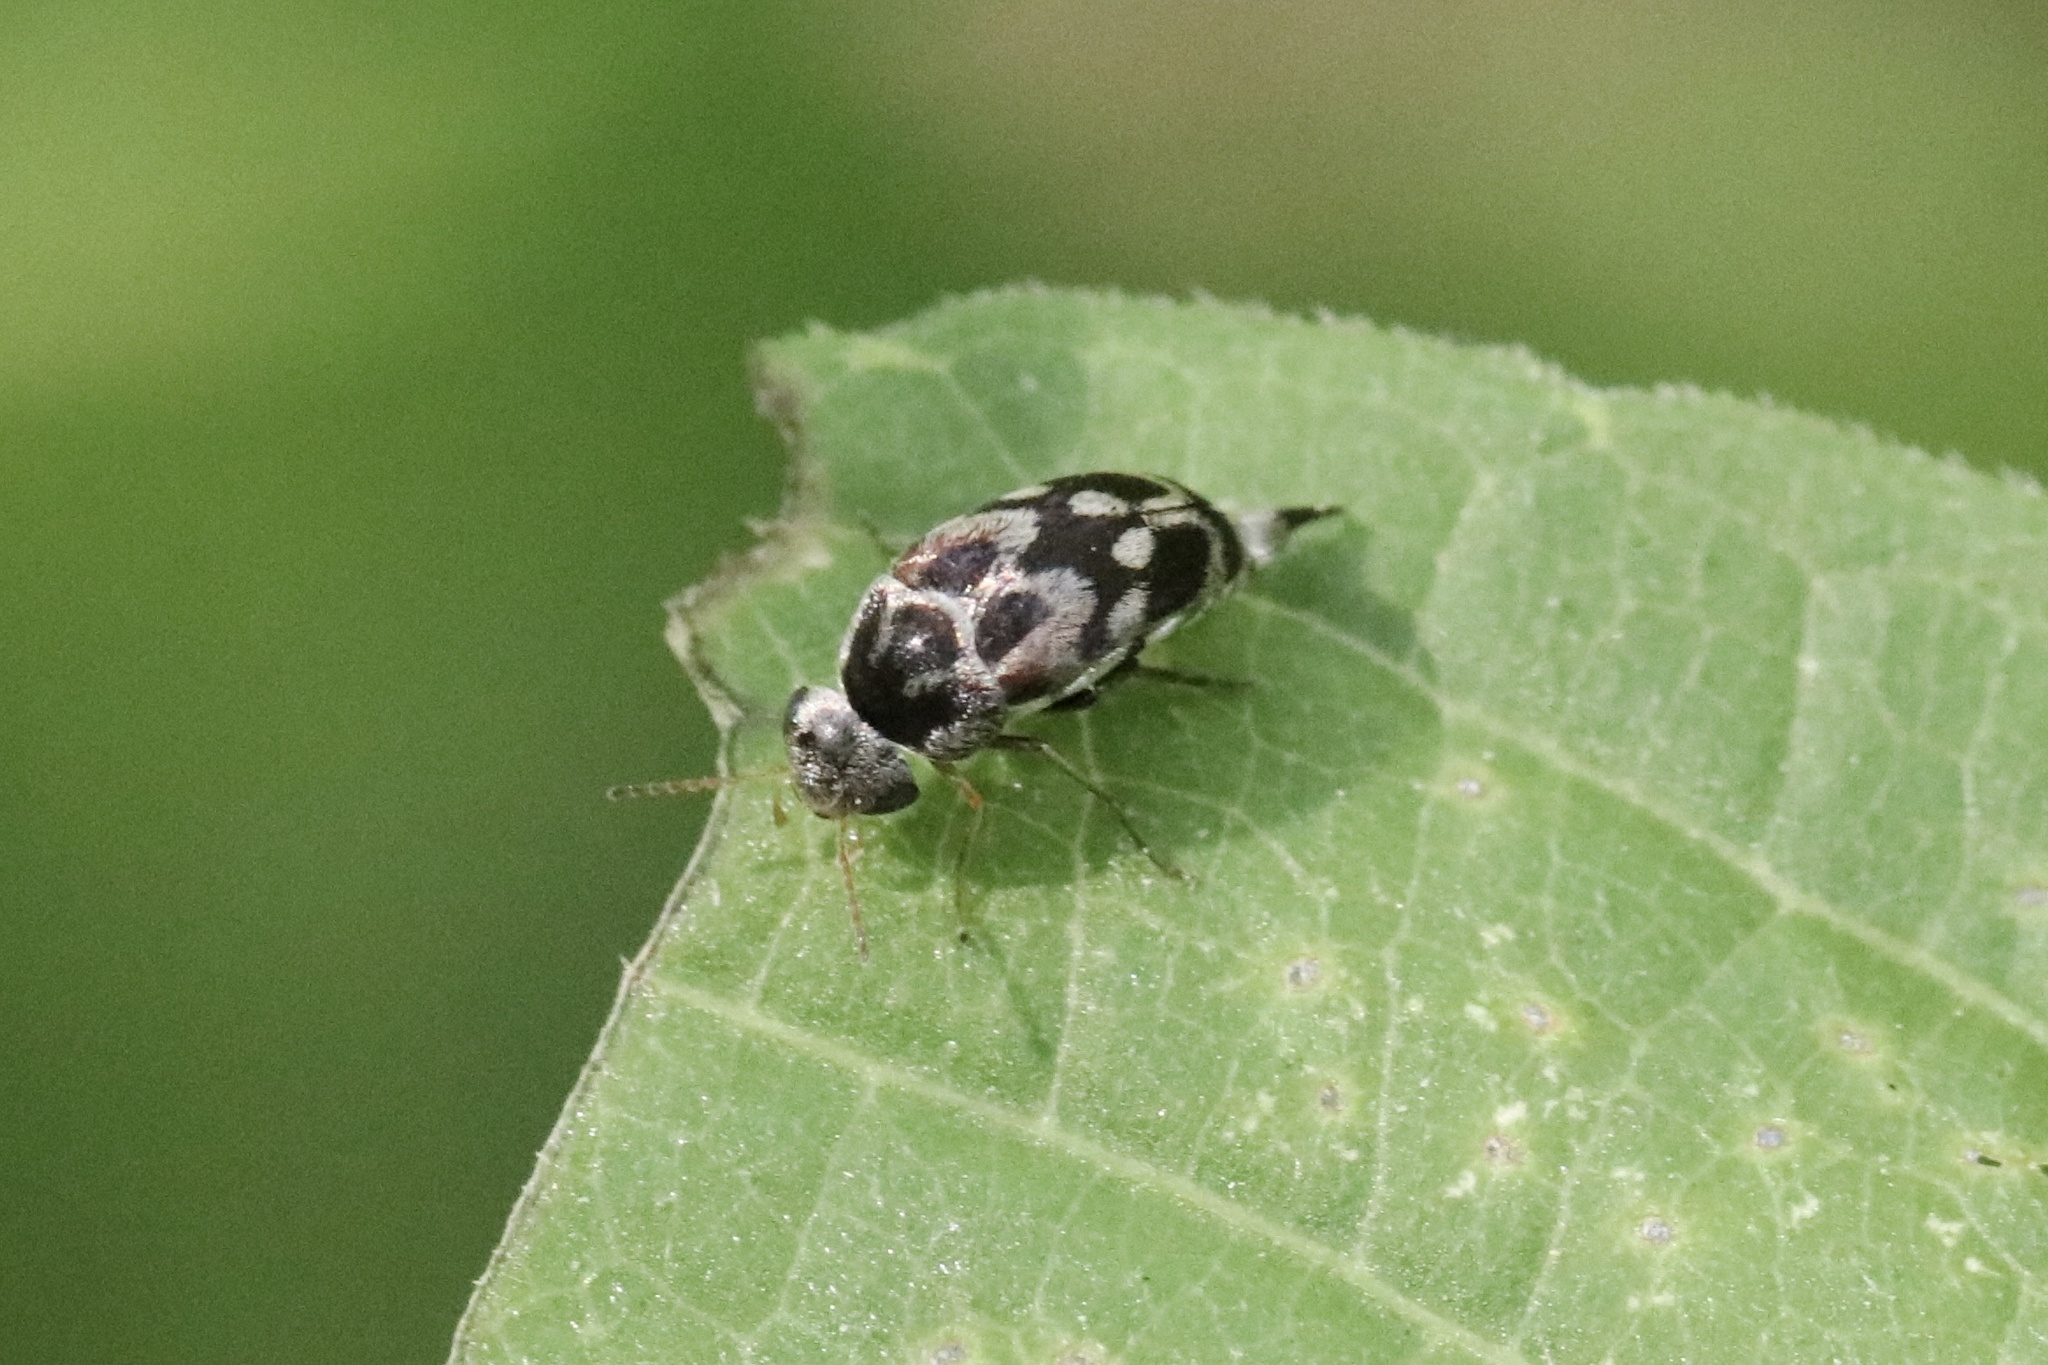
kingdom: Animalia
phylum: Arthropoda
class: Insecta
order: Coleoptera
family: Mordellidae
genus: Paramordellaria
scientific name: Paramordellaria carinata
